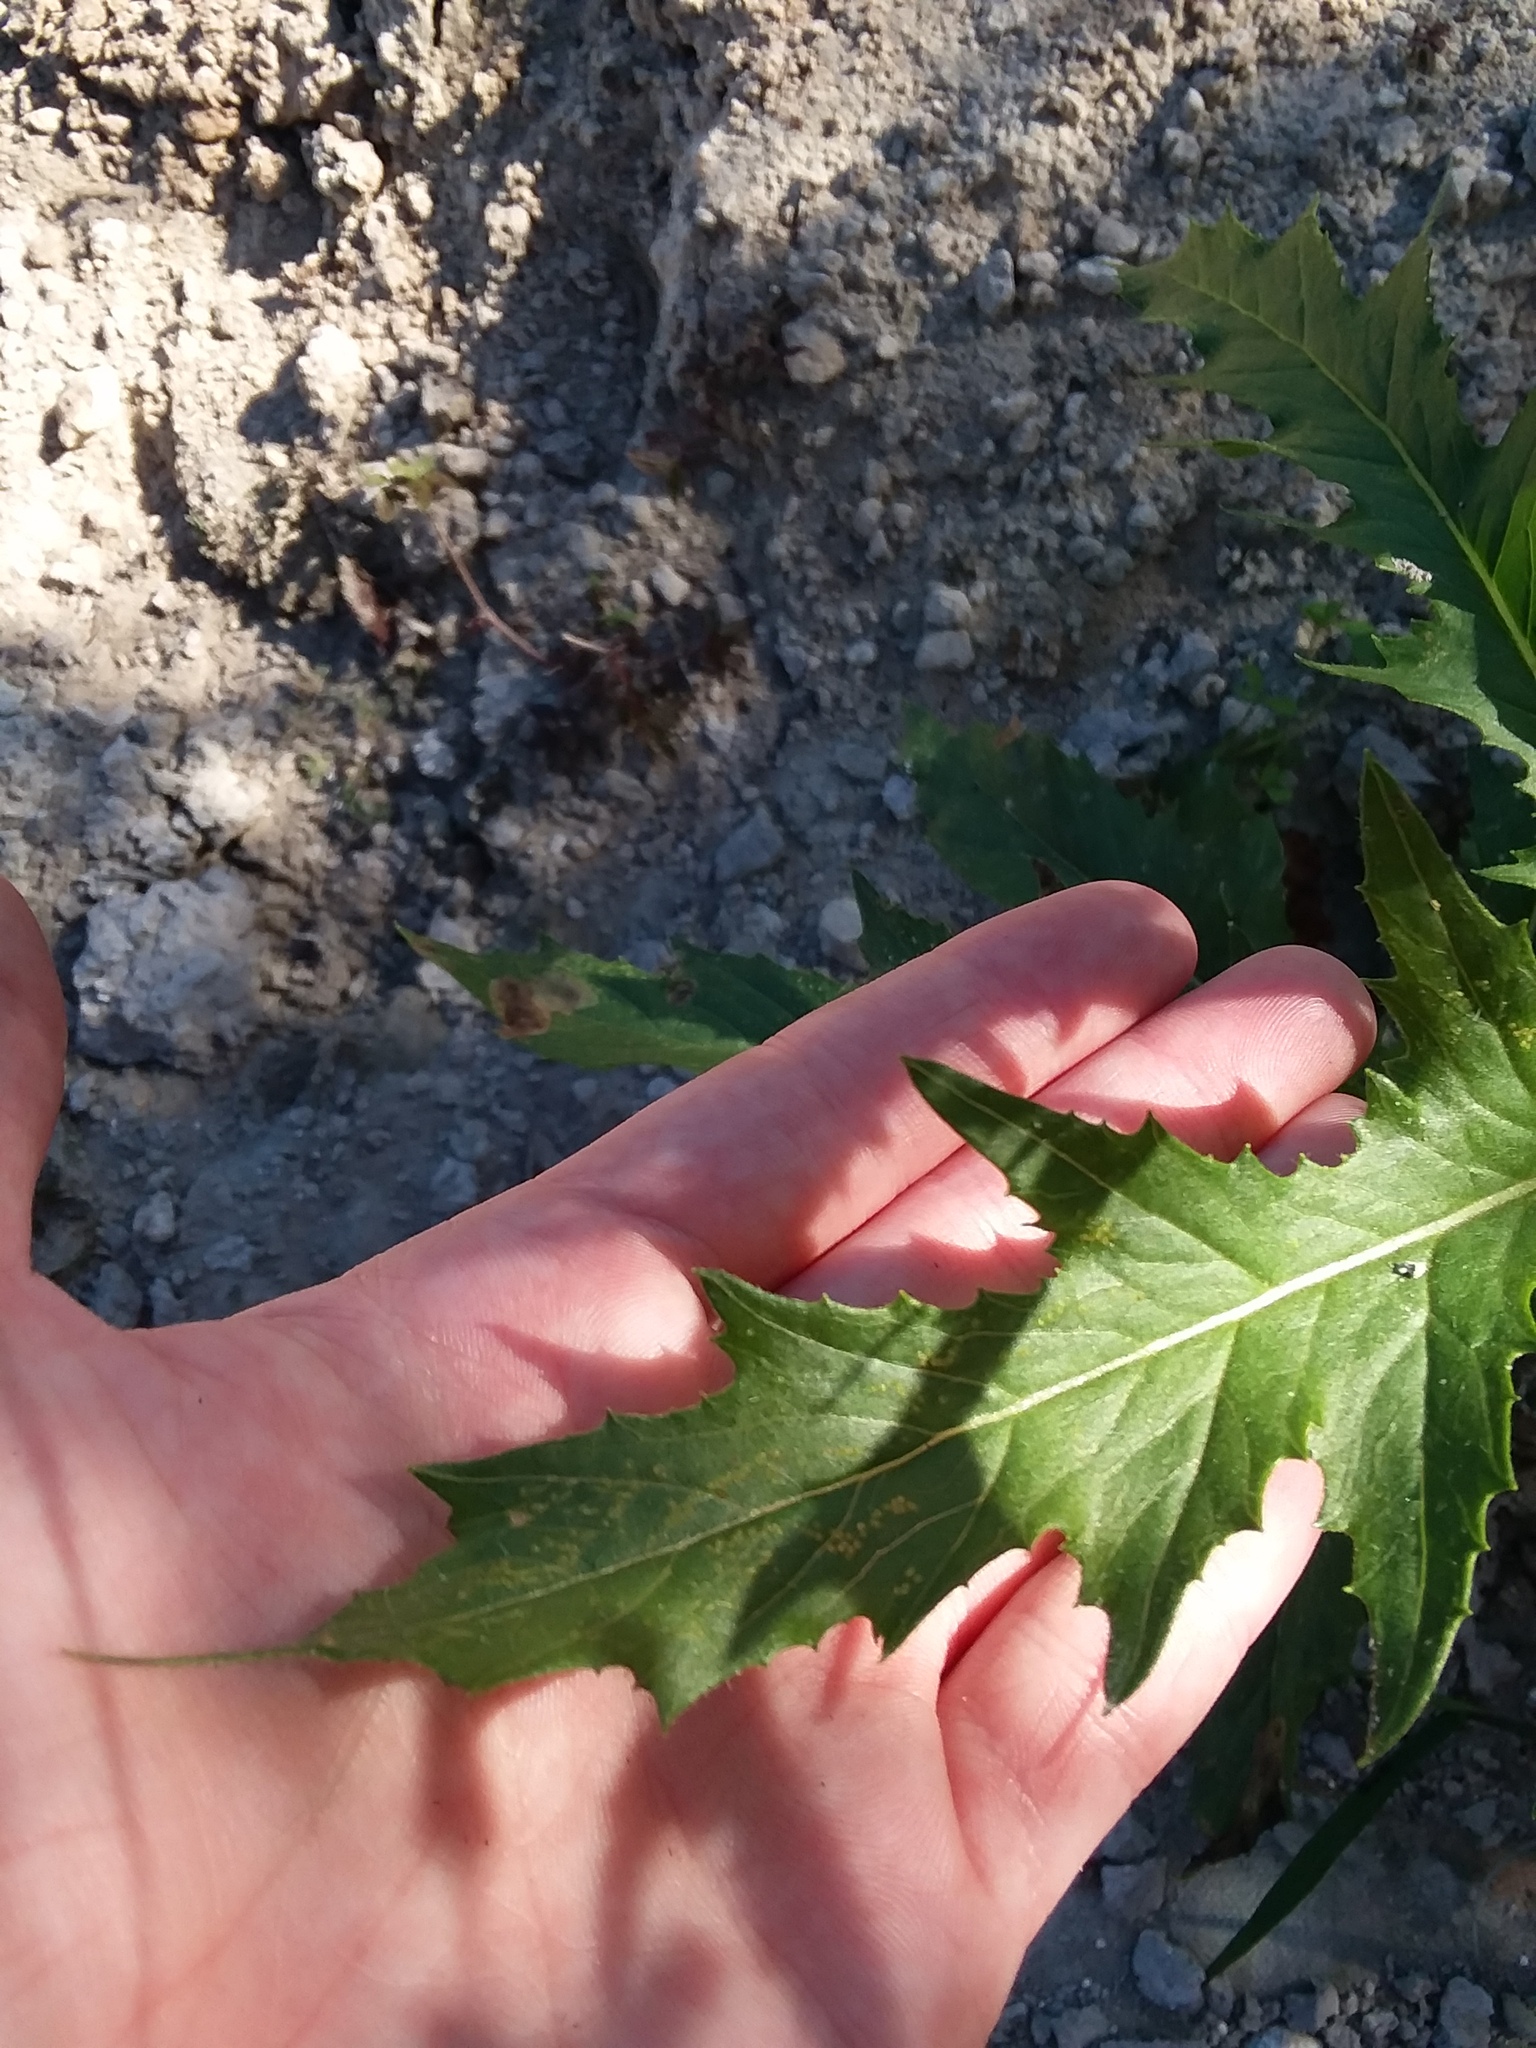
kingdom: Plantae
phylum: Tracheophyta
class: Magnoliopsida
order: Asterales
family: Asteraceae
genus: Erechtites
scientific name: Erechtites hieraciifolius
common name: American burnweed
